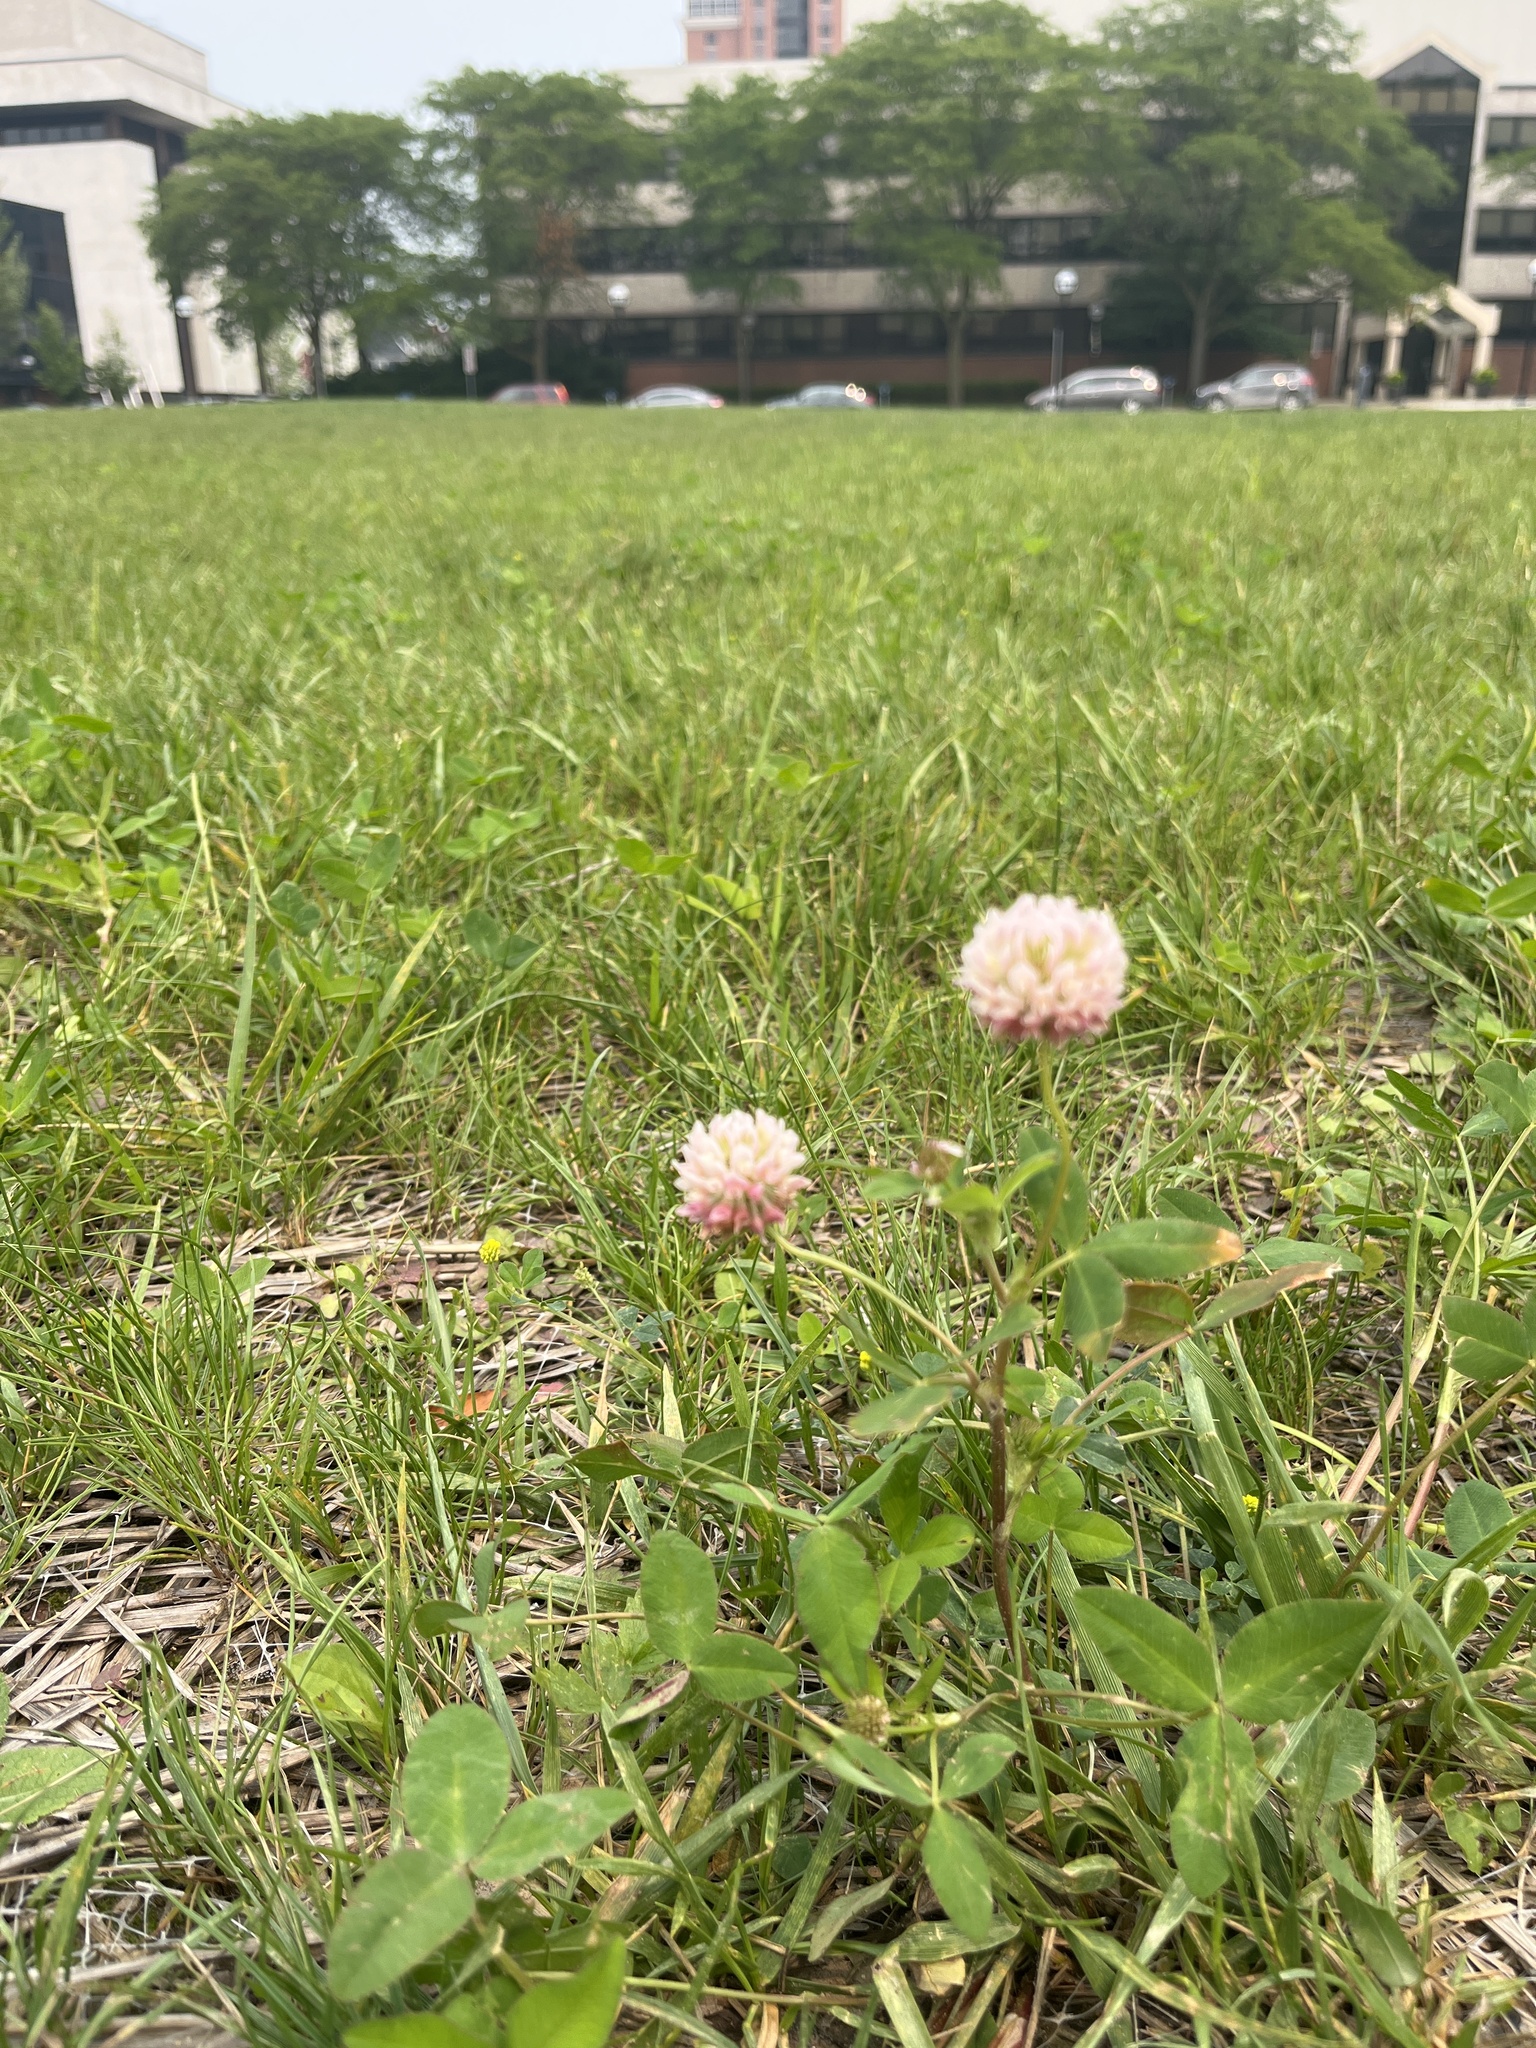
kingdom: Plantae
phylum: Tracheophyta
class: Magnoliopsida
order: Fabales
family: Fabaceae
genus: Trifolium
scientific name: Trifolium repens
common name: White clover
